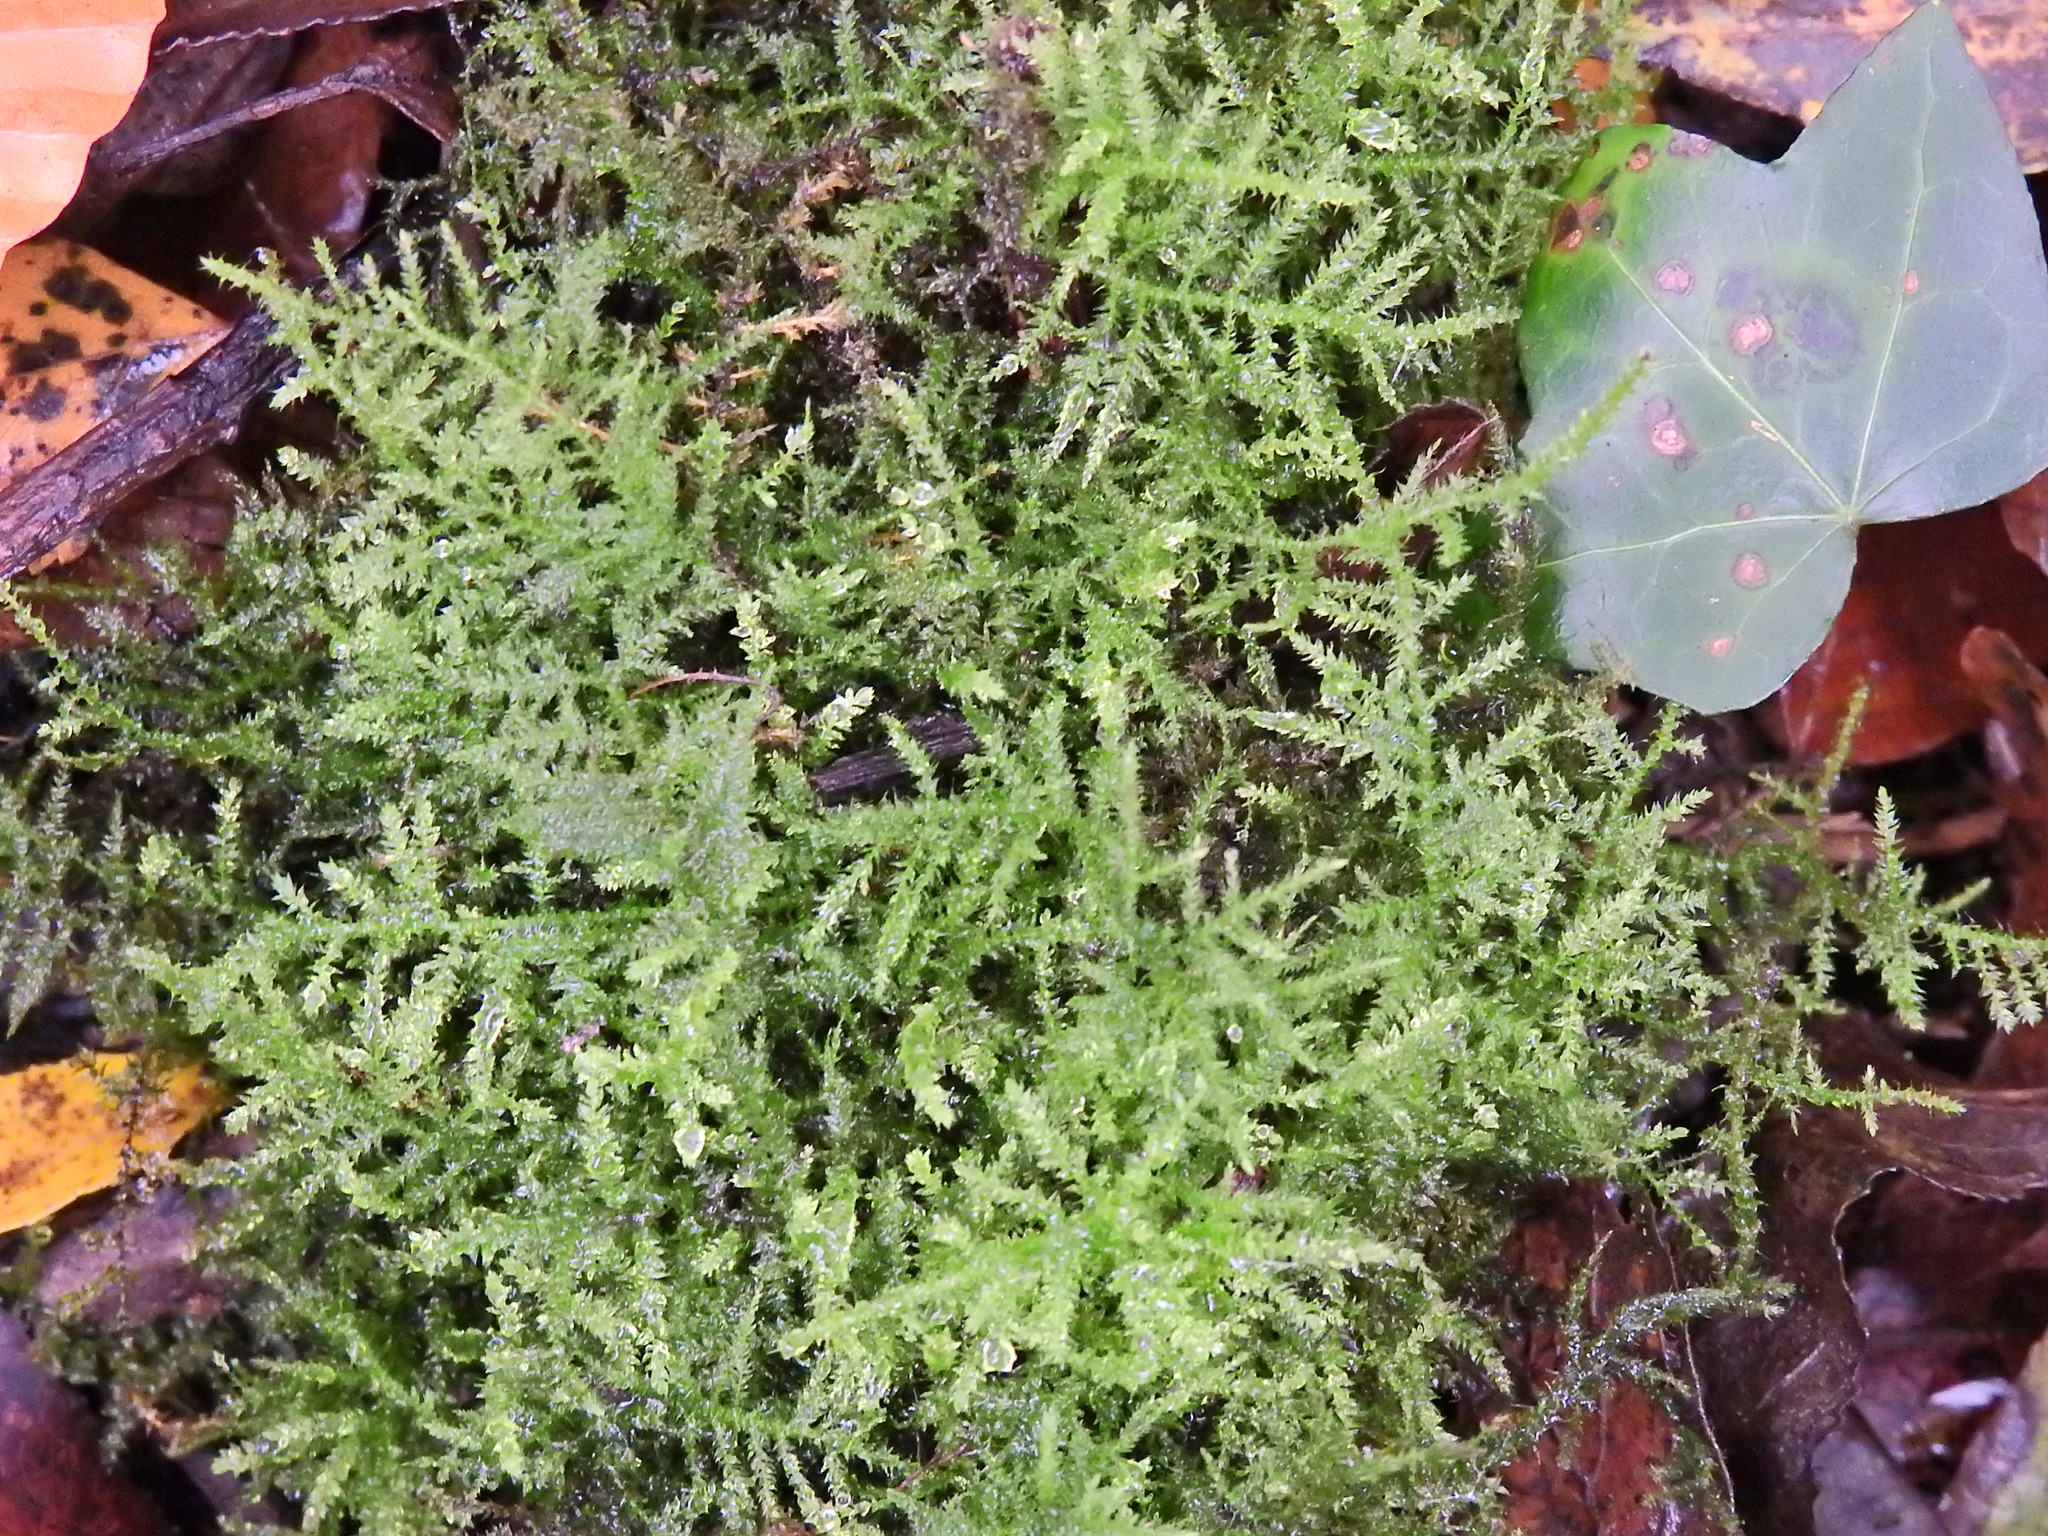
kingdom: Plantae
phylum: Bryophyta
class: Bryopsida
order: Hypnales
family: Brachytheciaceae
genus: Kindbergia
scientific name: Kindbergia praelonga
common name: Slender beaked moss
